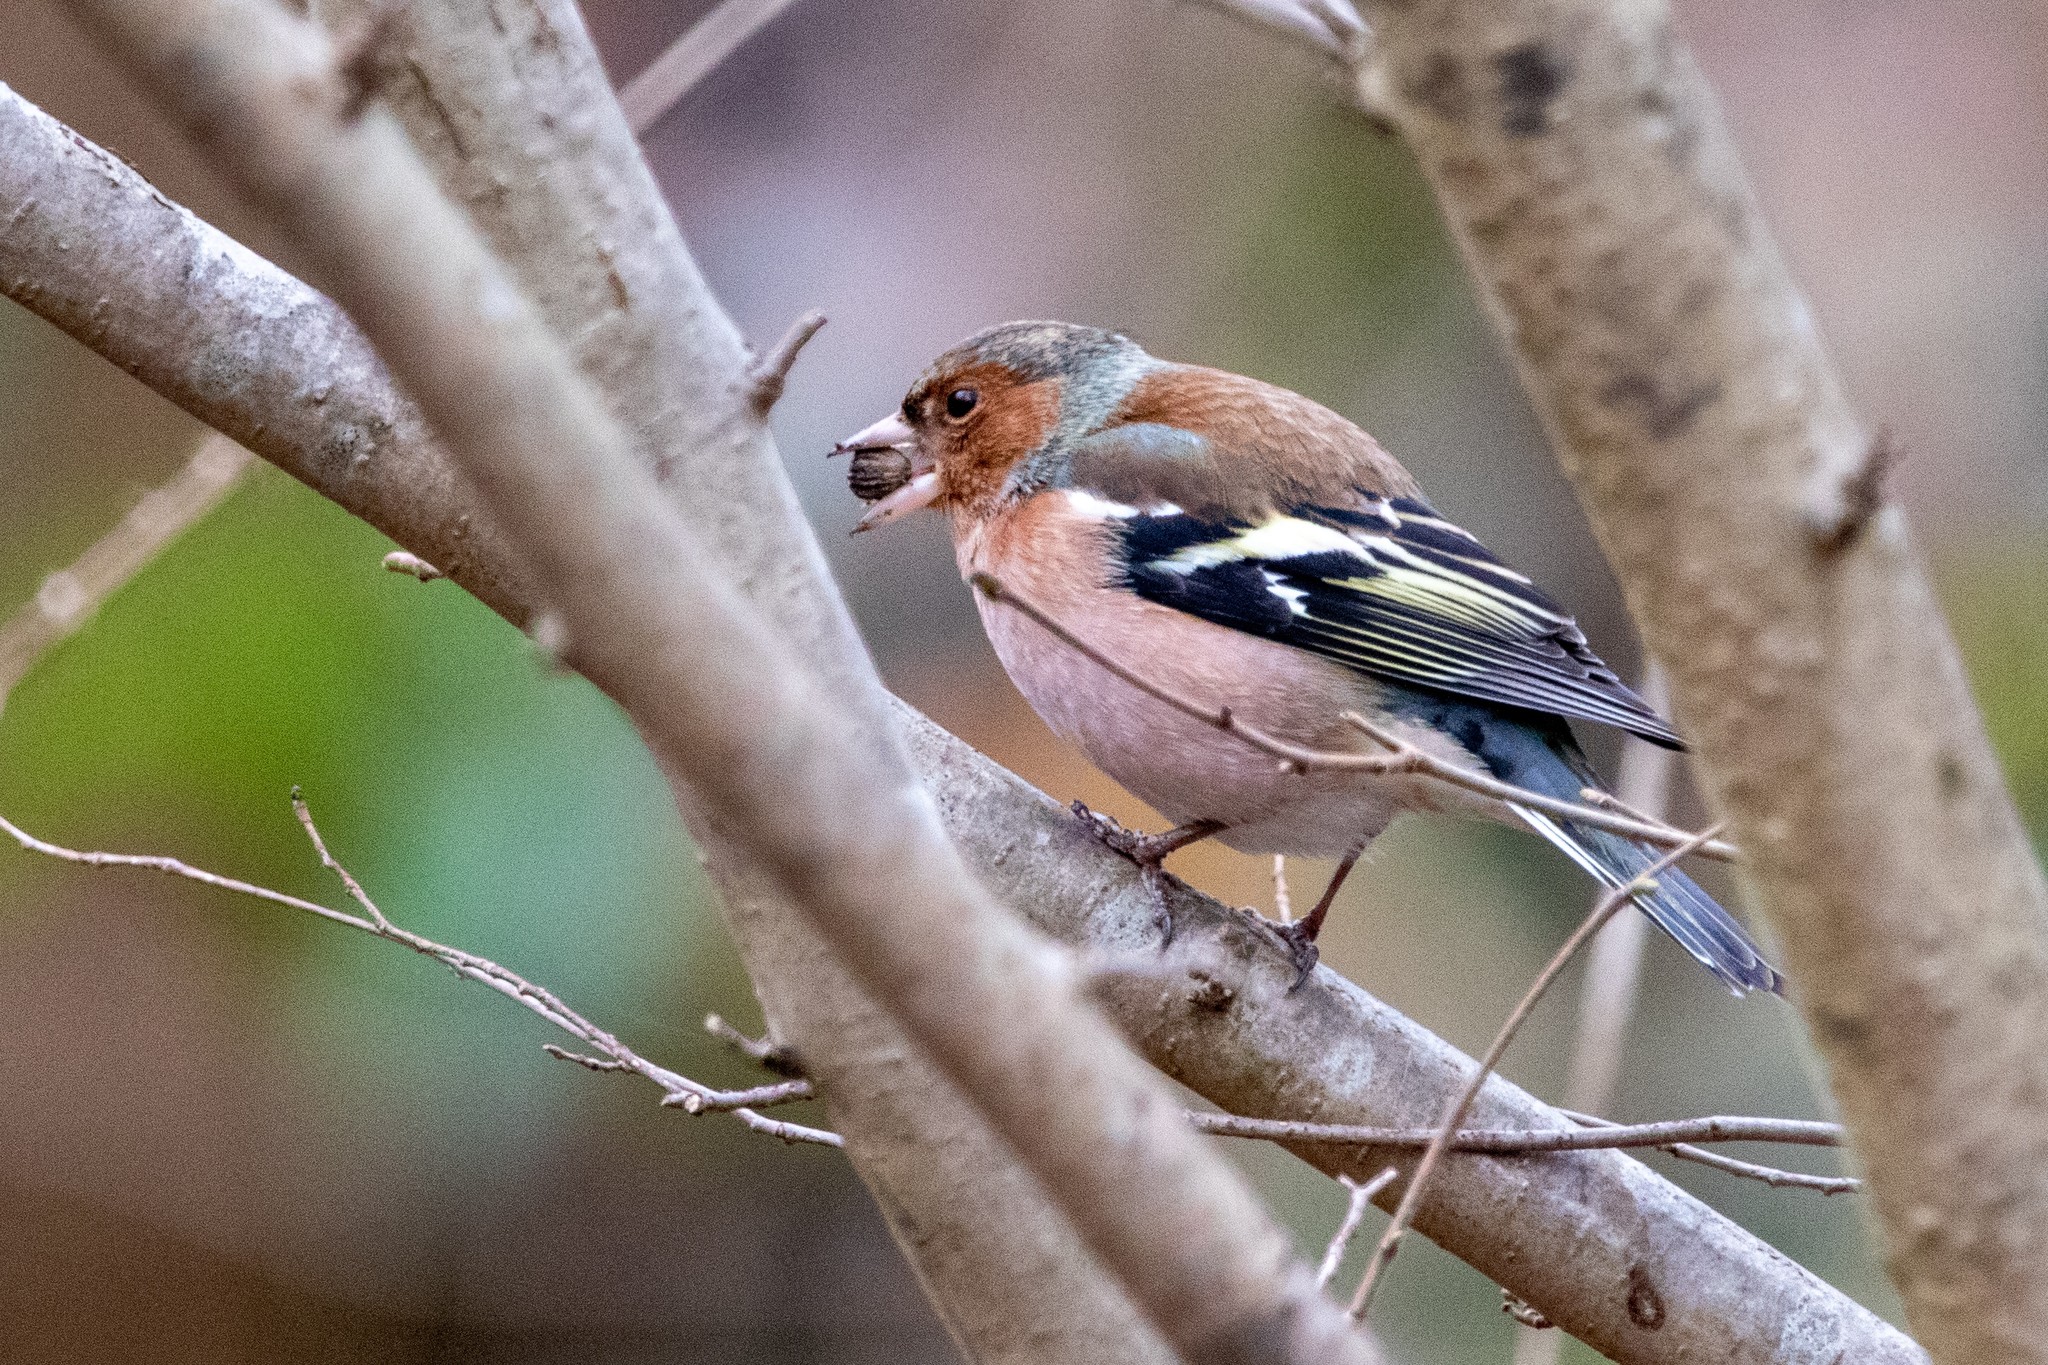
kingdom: Animalia
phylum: Chordata
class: Aves
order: Passeriformes
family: Fringillidae
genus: Fringilla
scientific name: Fringilla coelebs
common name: Common chaffinch
